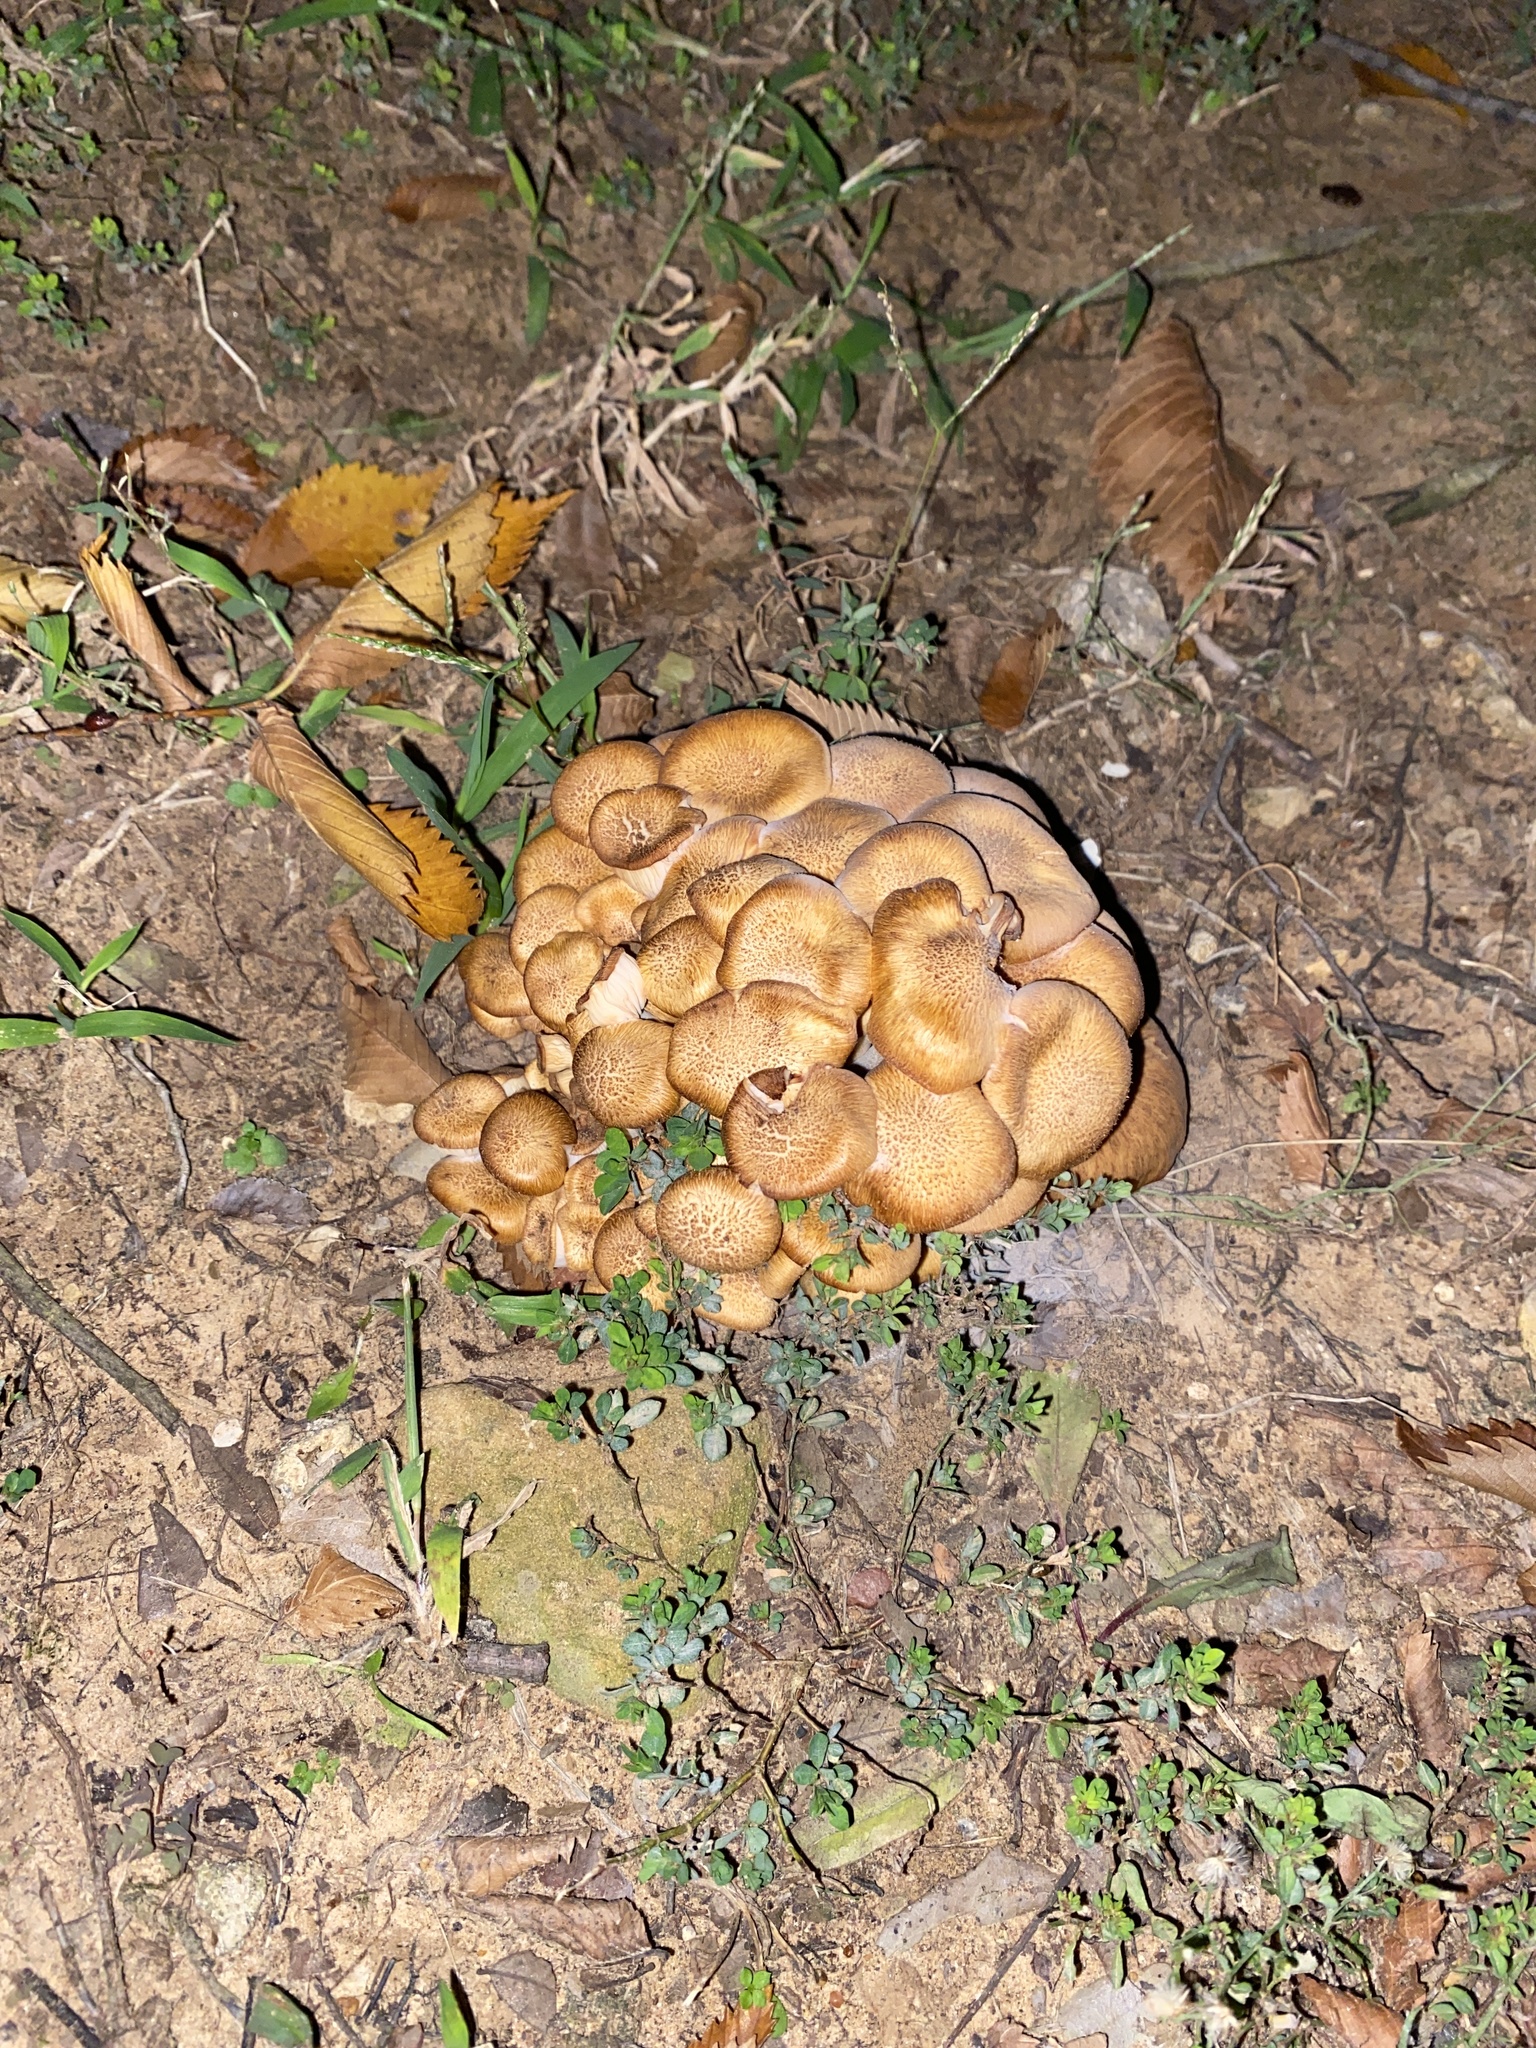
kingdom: Fungi
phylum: Basidiomycota
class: Agaricomycetes
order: Agaricales
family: Physalacriaceae
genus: Desarmillaria
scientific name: Desarmillaria caespitosa
